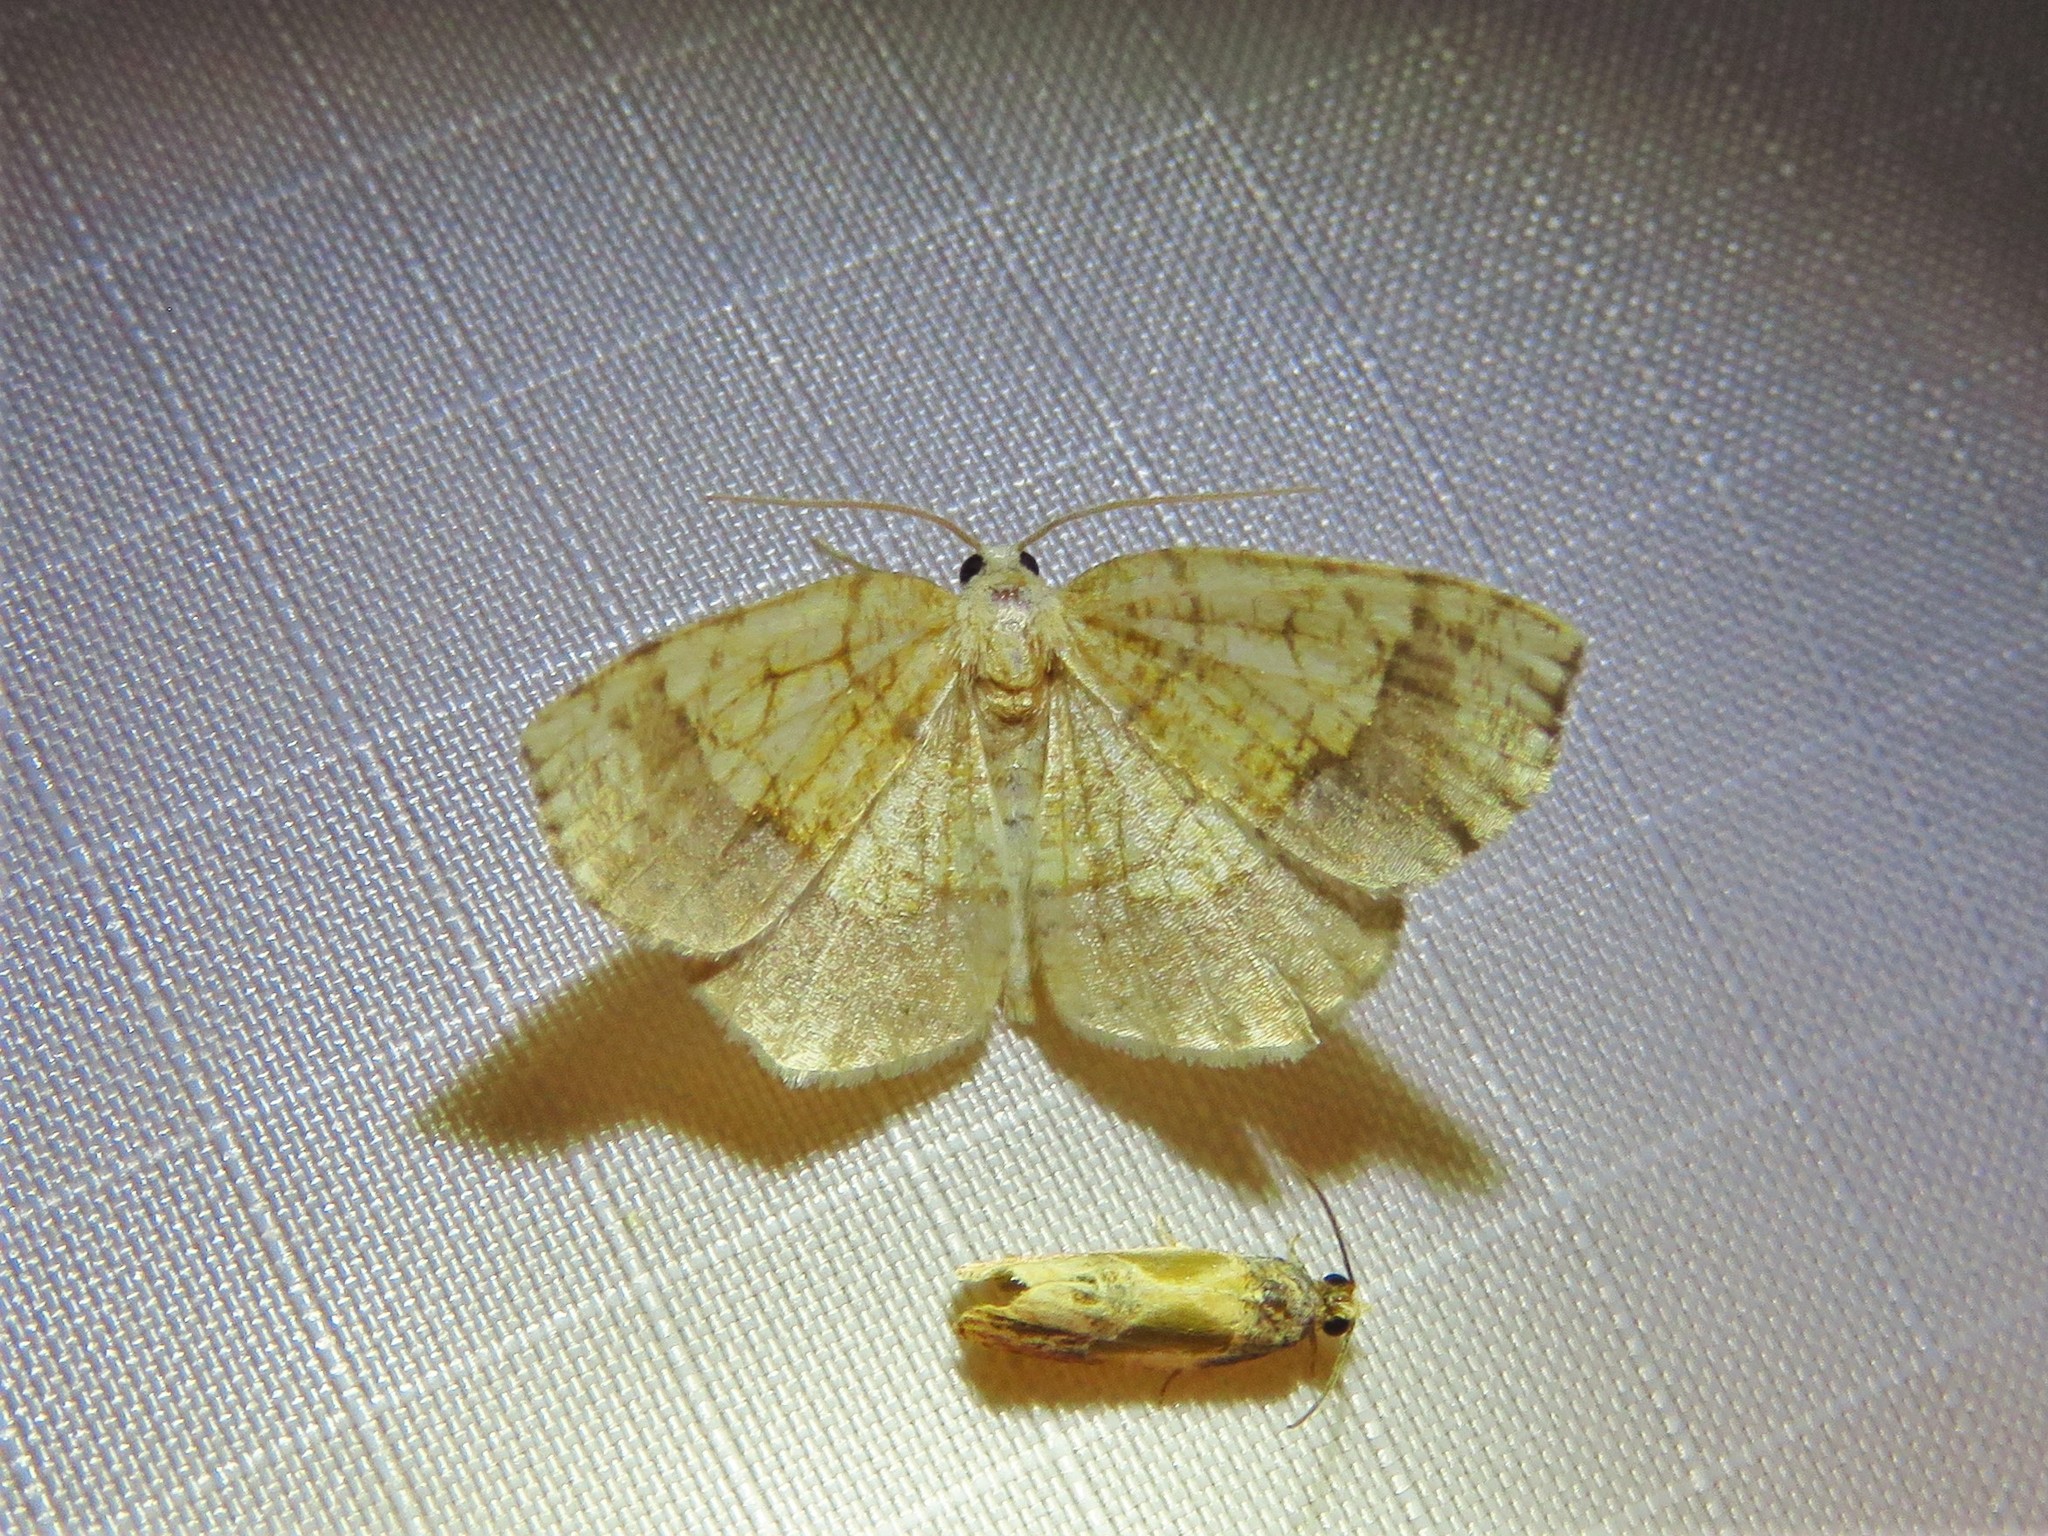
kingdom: Animalia
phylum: Arthropoda
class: Insecta
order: Lepidoptera
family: Geometridae
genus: Nematocampa
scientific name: Nematocampa resistaria
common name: Horned spanworm moth
